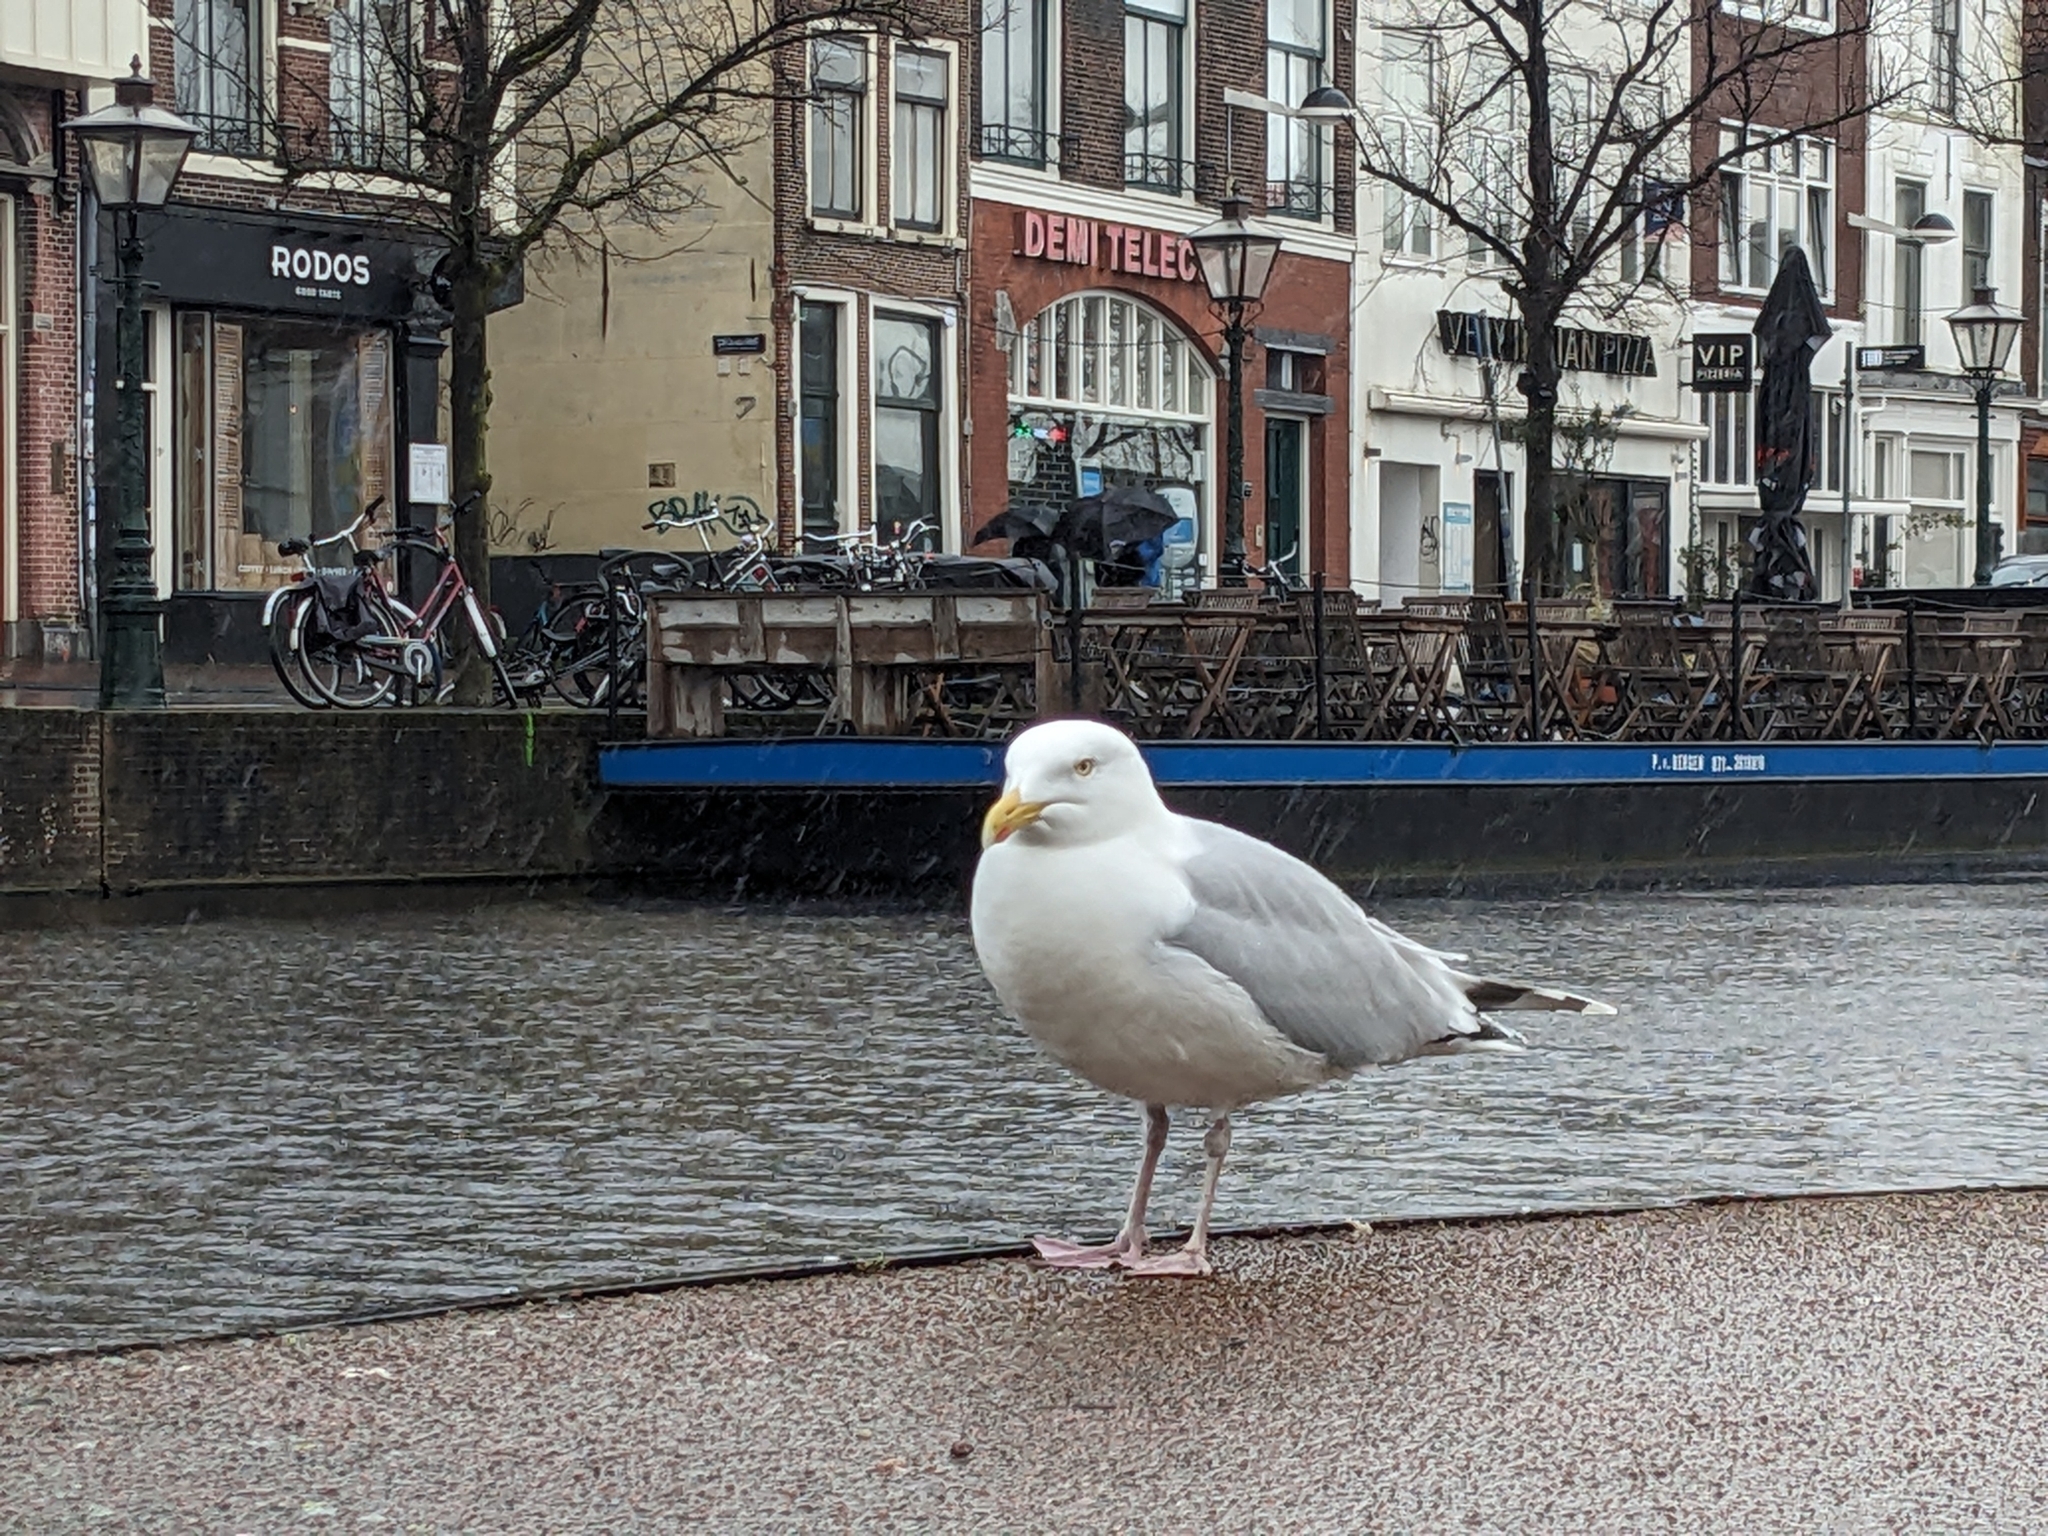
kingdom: Animalia
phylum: Chordata
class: Aves
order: Charadriiformes
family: Laridae
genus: Larus
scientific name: Larus argentatus
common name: Herring gull
